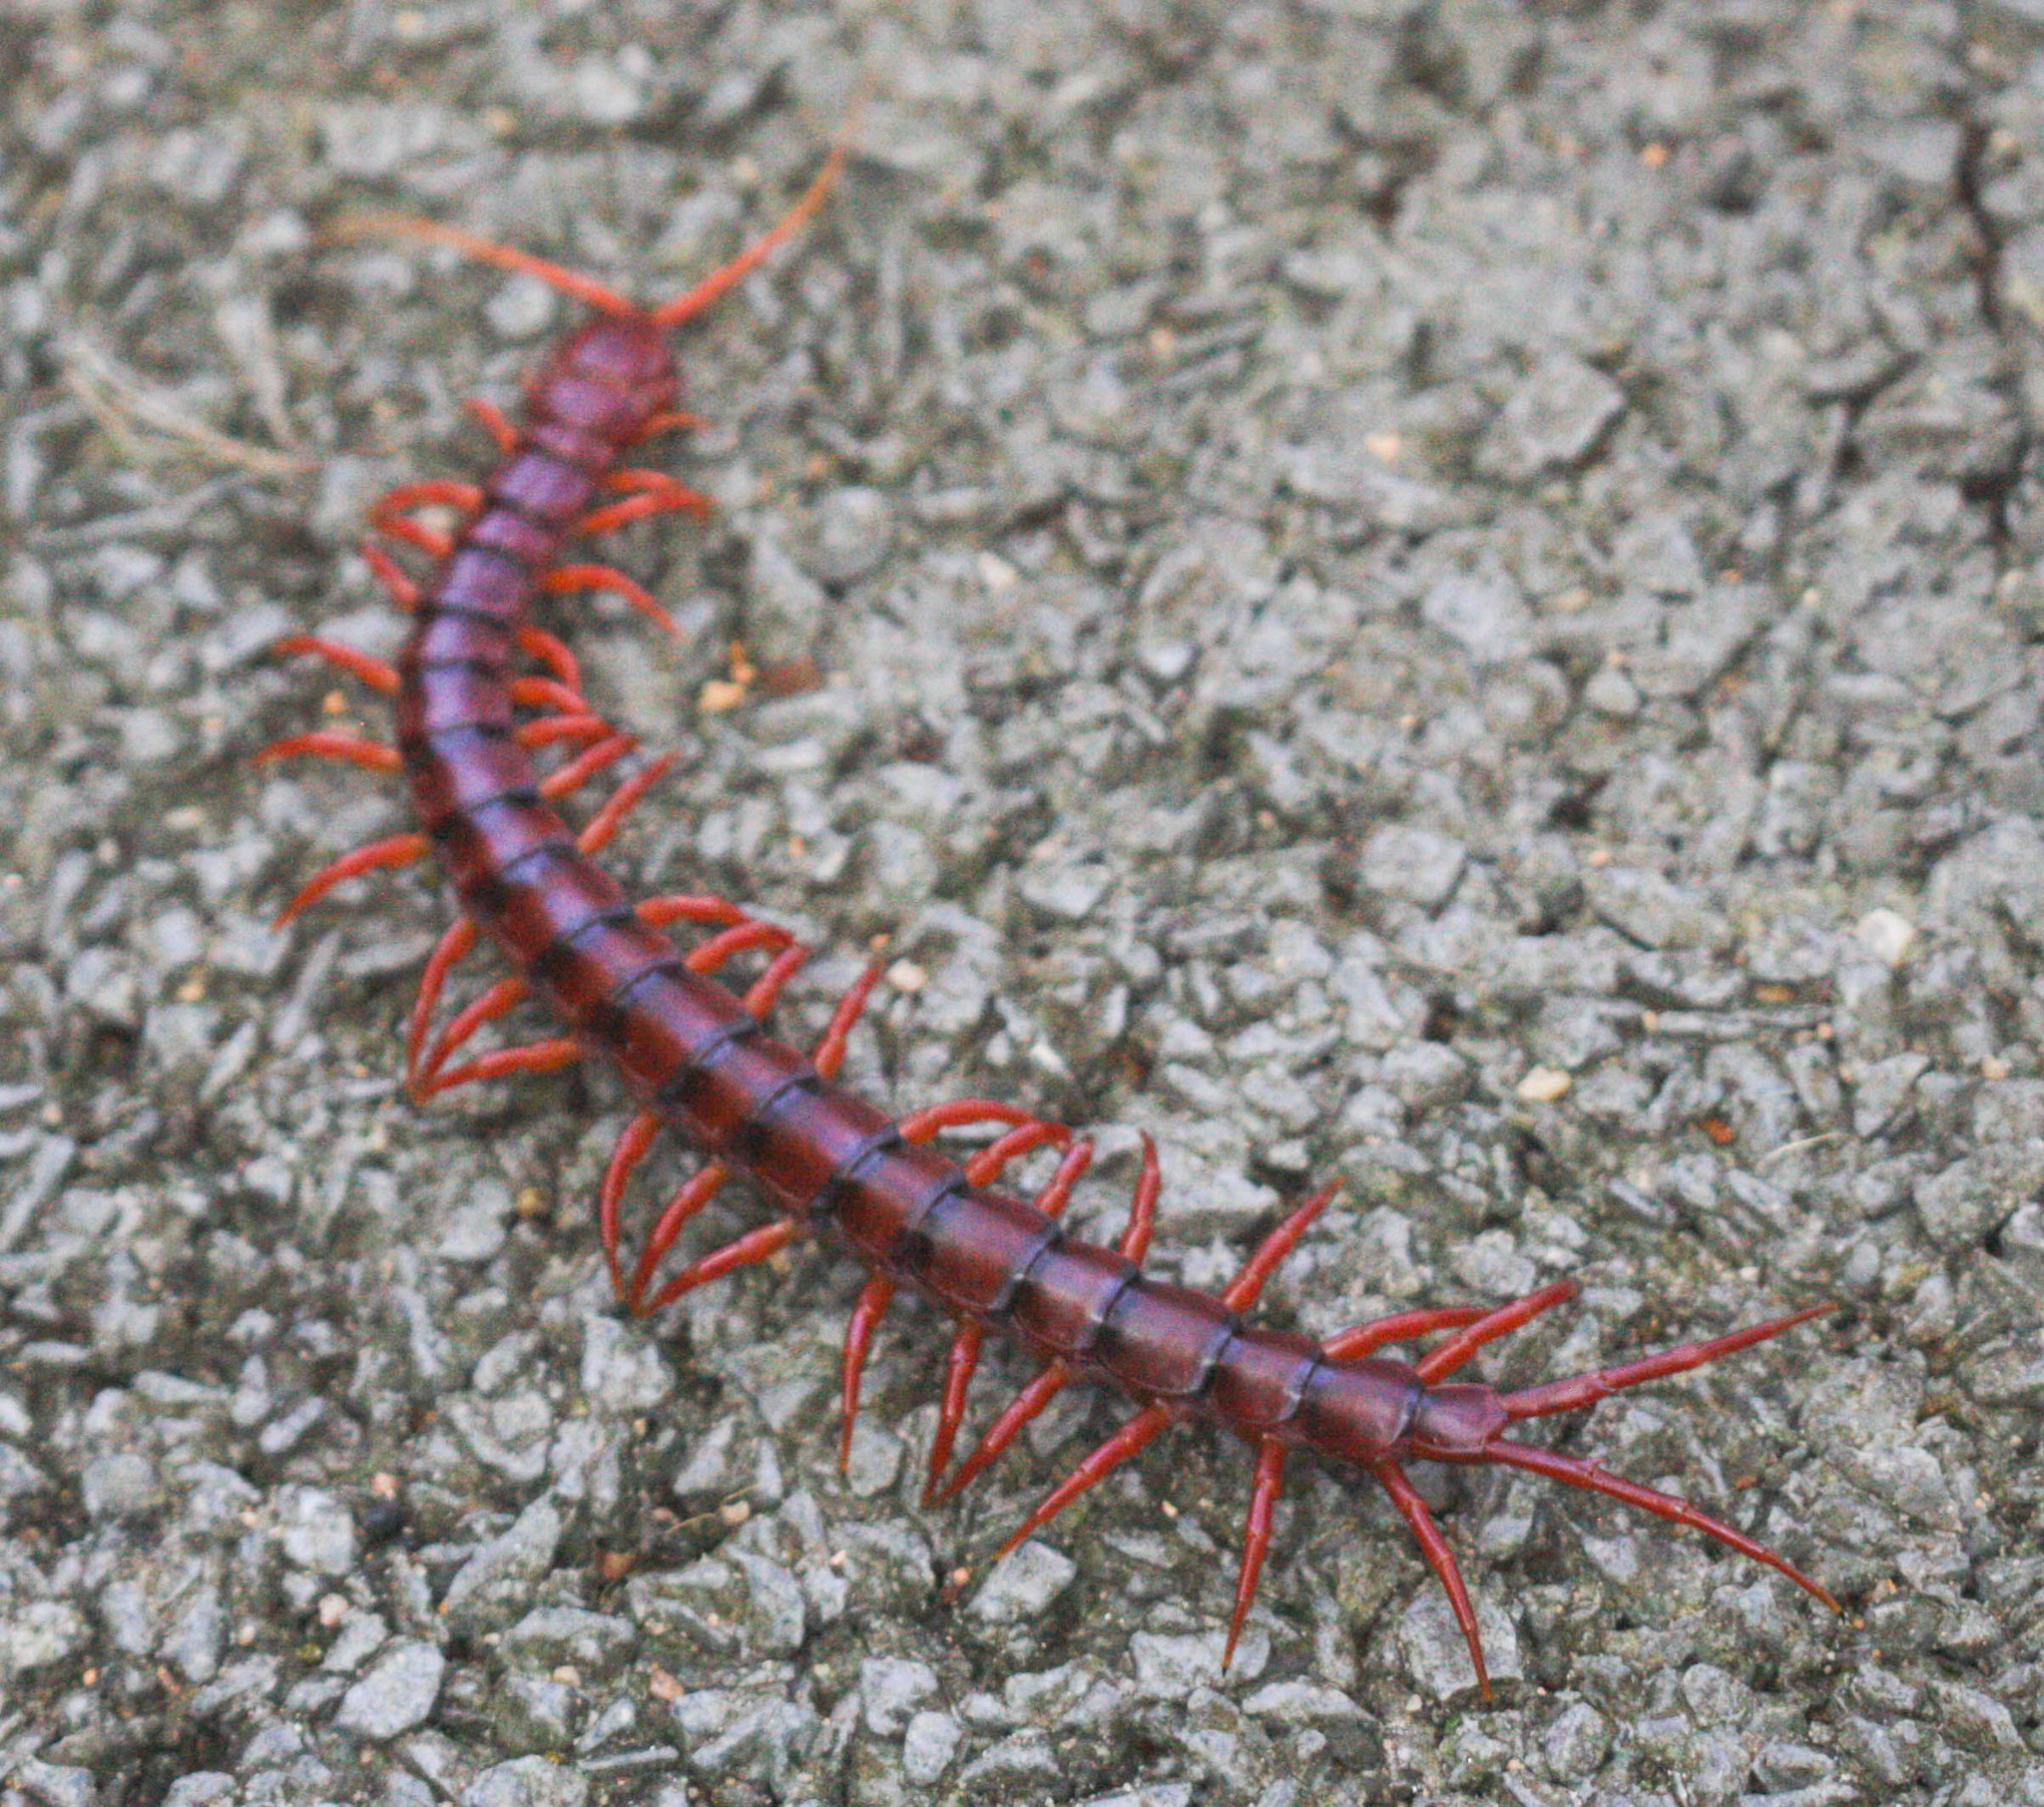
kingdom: Animalia
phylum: Arthropoda
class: Chilopoda
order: Scolopendromorpha
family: Scolopendridae
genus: Scolopendra
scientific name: Scolopendra dehaani
